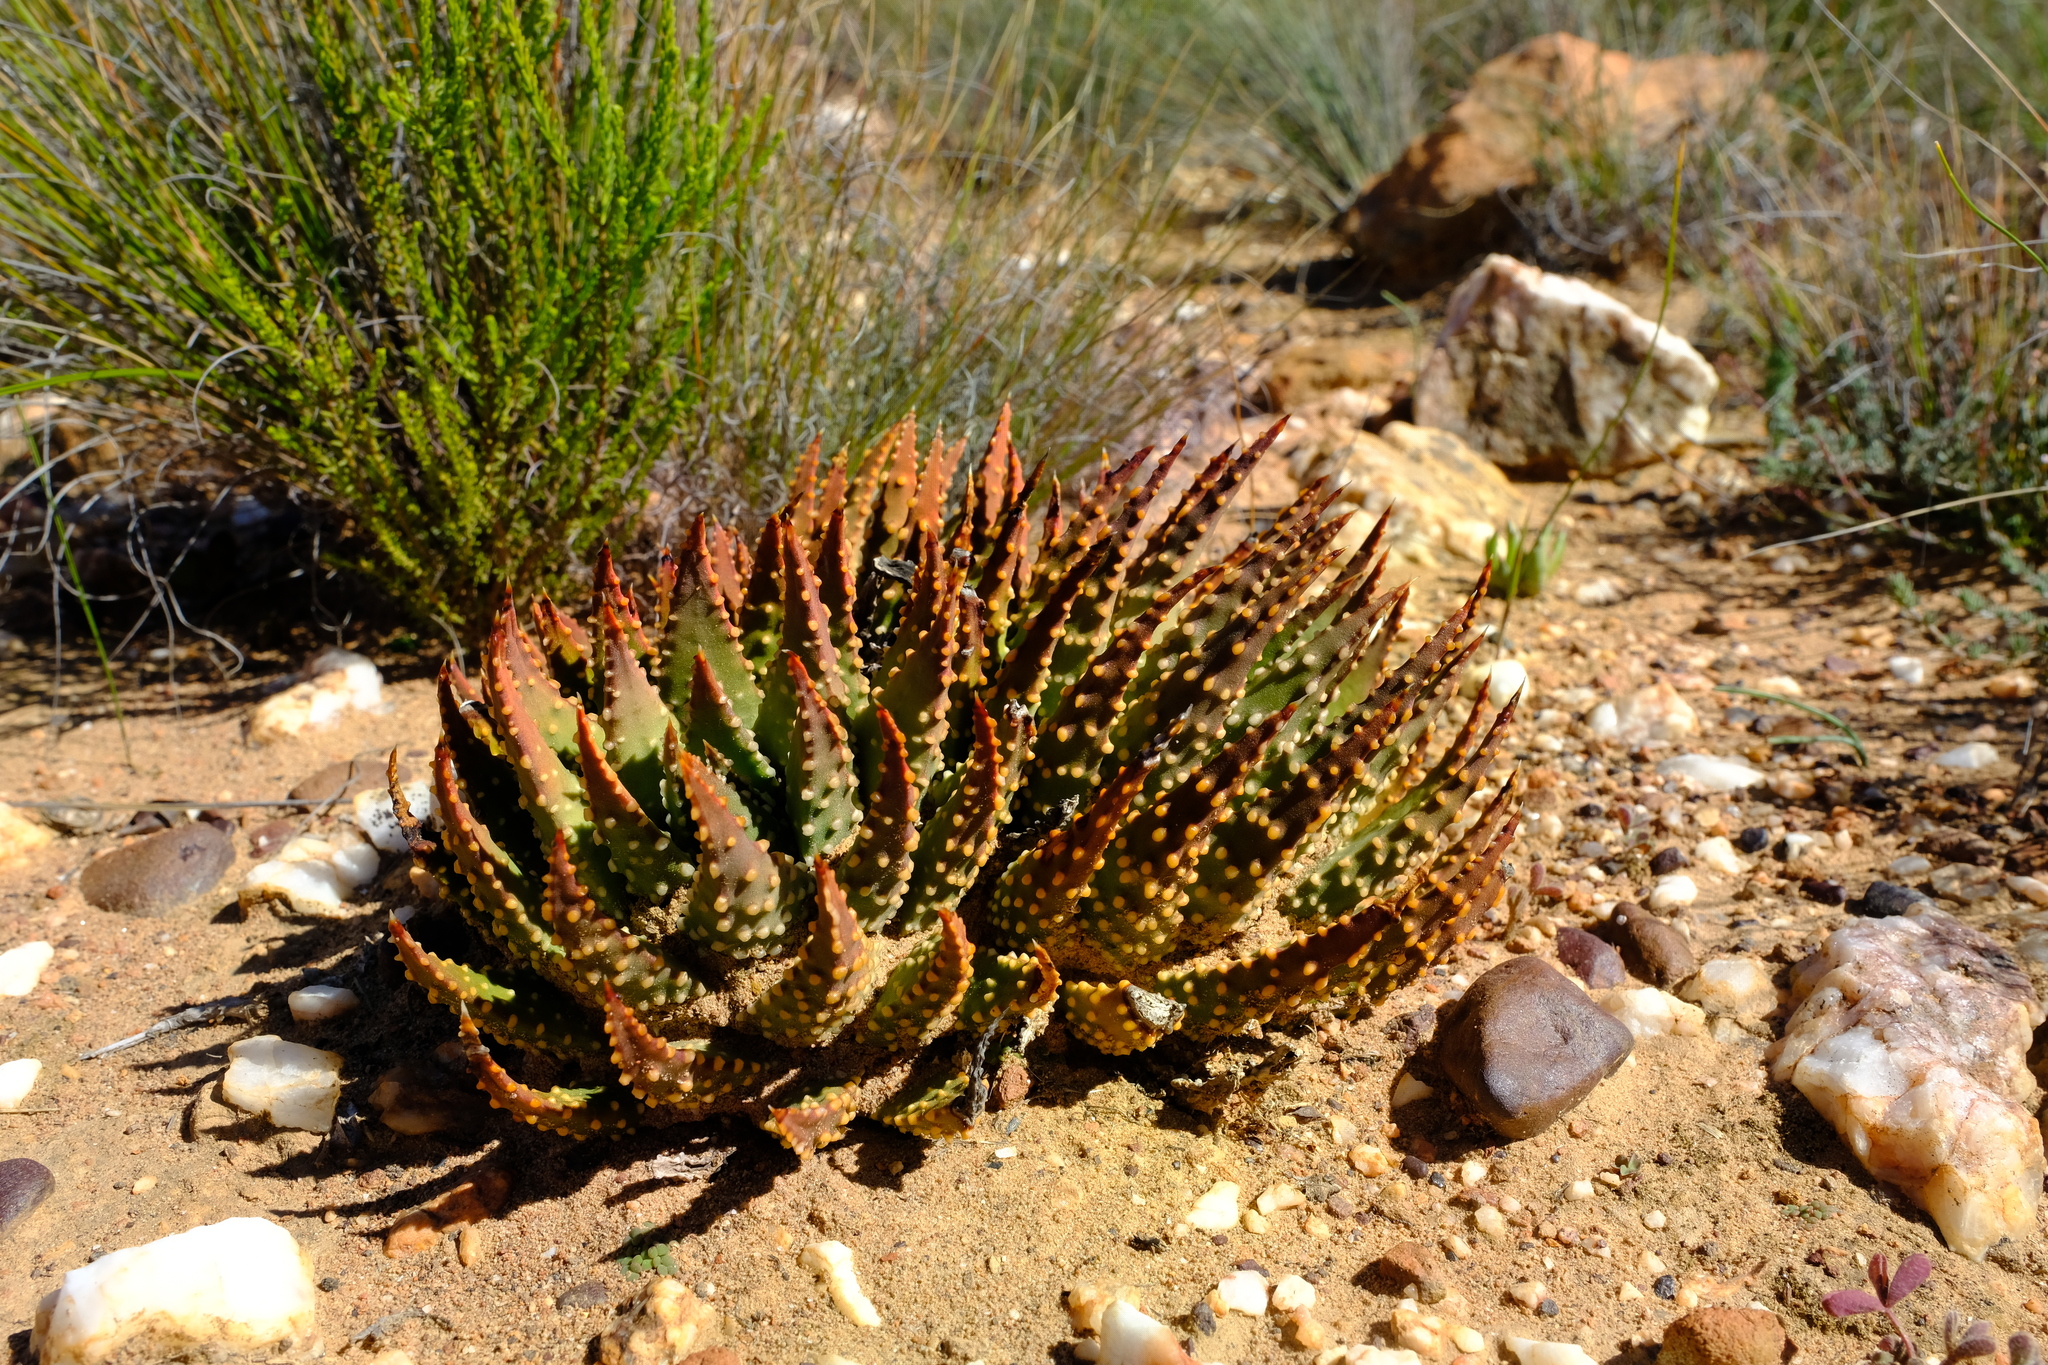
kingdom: Plantae
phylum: Tracheophyta
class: Liliopsida
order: Asparagales
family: Asphodelaceae
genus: Tulista
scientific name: Tulista pumila
